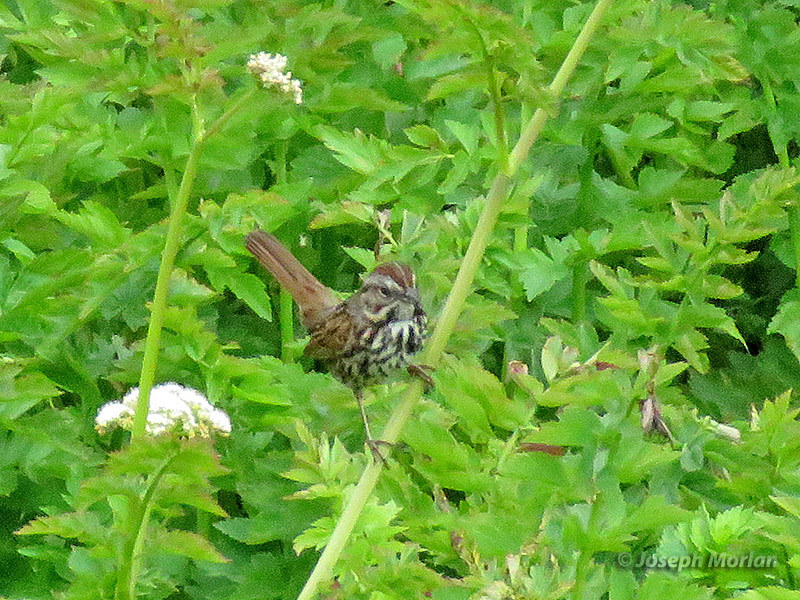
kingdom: Animalia
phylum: Chordata
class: Aves
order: Passeriformes
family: Passerellidae
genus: Melospiza
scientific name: Melospiza melodia
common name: Song sparrow
